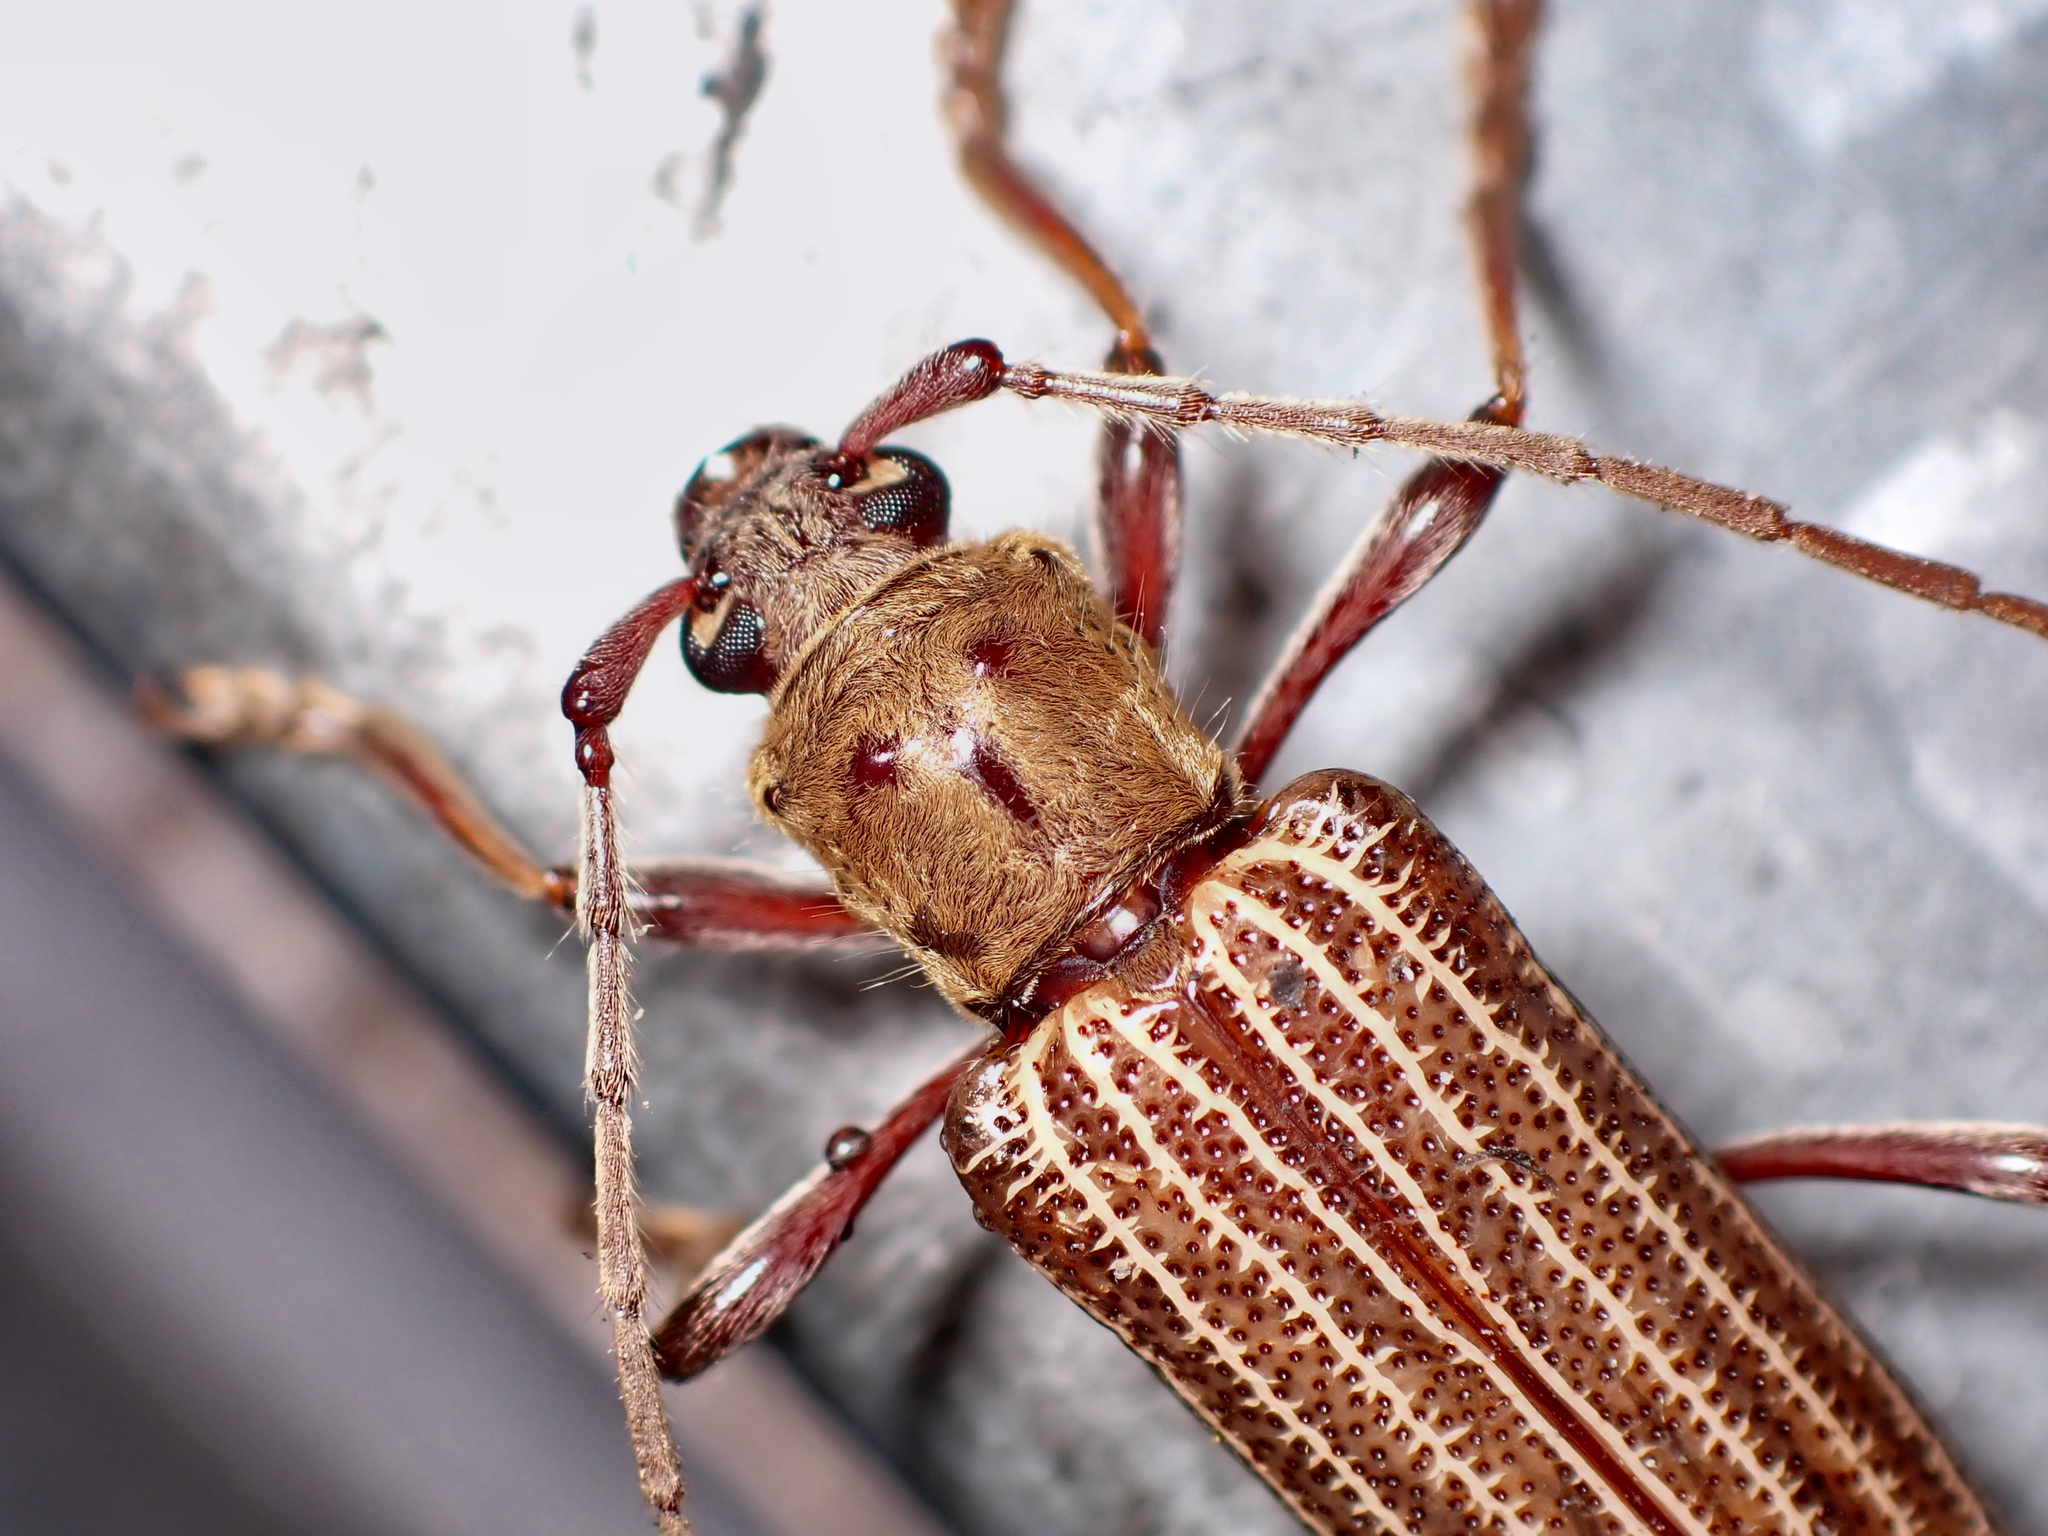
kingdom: Animalia
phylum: Arthropoda
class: Insecta
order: Coleoptera
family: Cerambycidae
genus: Xuthodes
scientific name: Xuthodes batesi
